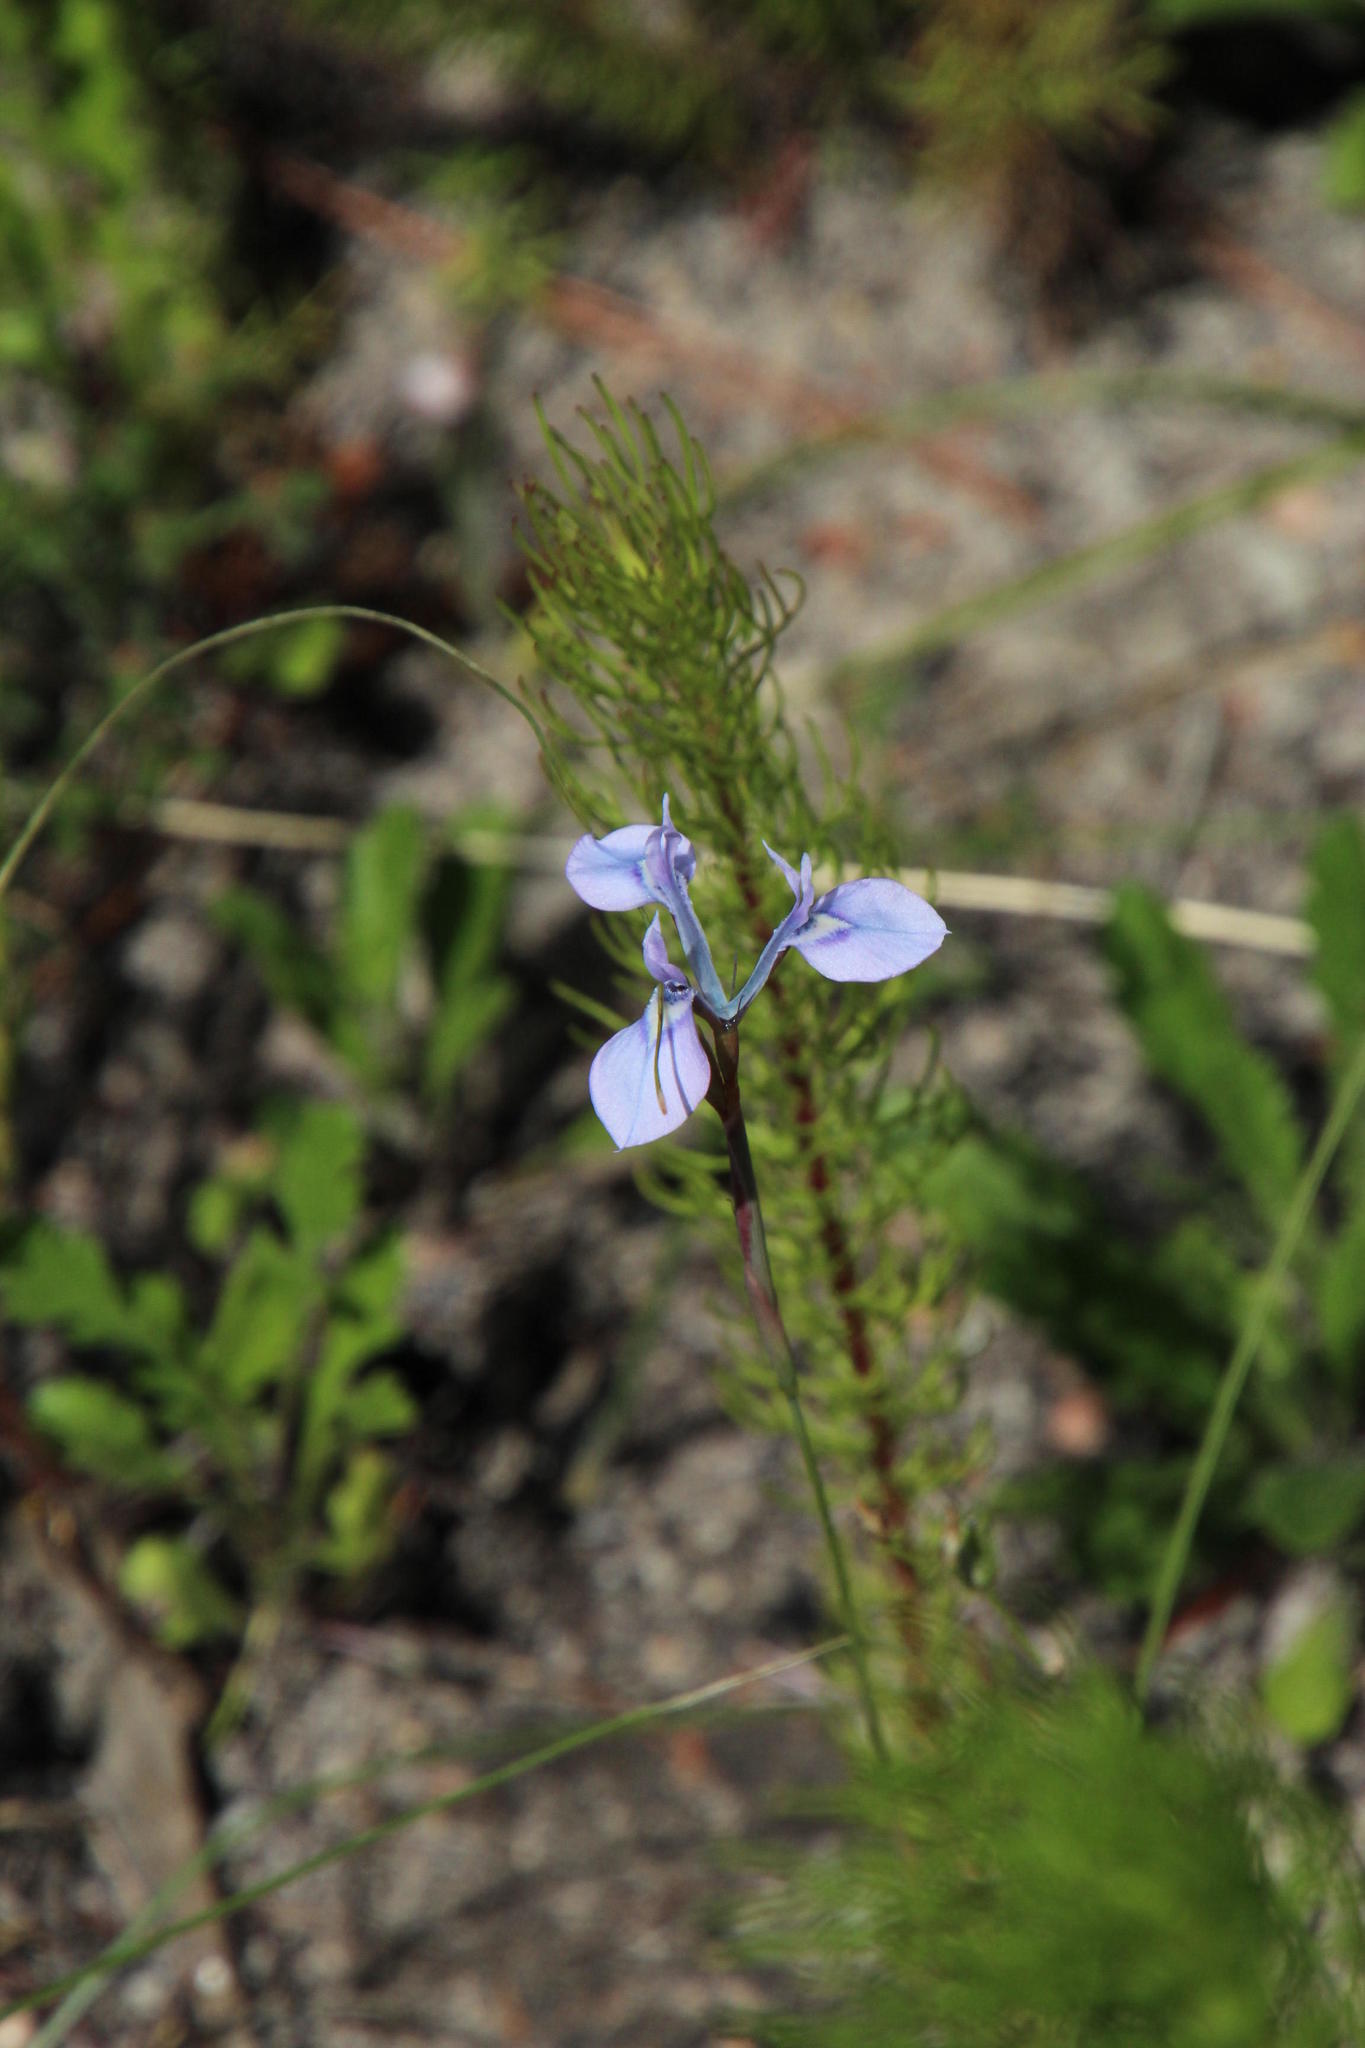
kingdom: Plantae
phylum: Tracheophyta
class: Liliopsida
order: Asparagales
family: Iridaceae
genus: Moraea
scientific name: Moraea tripetala
